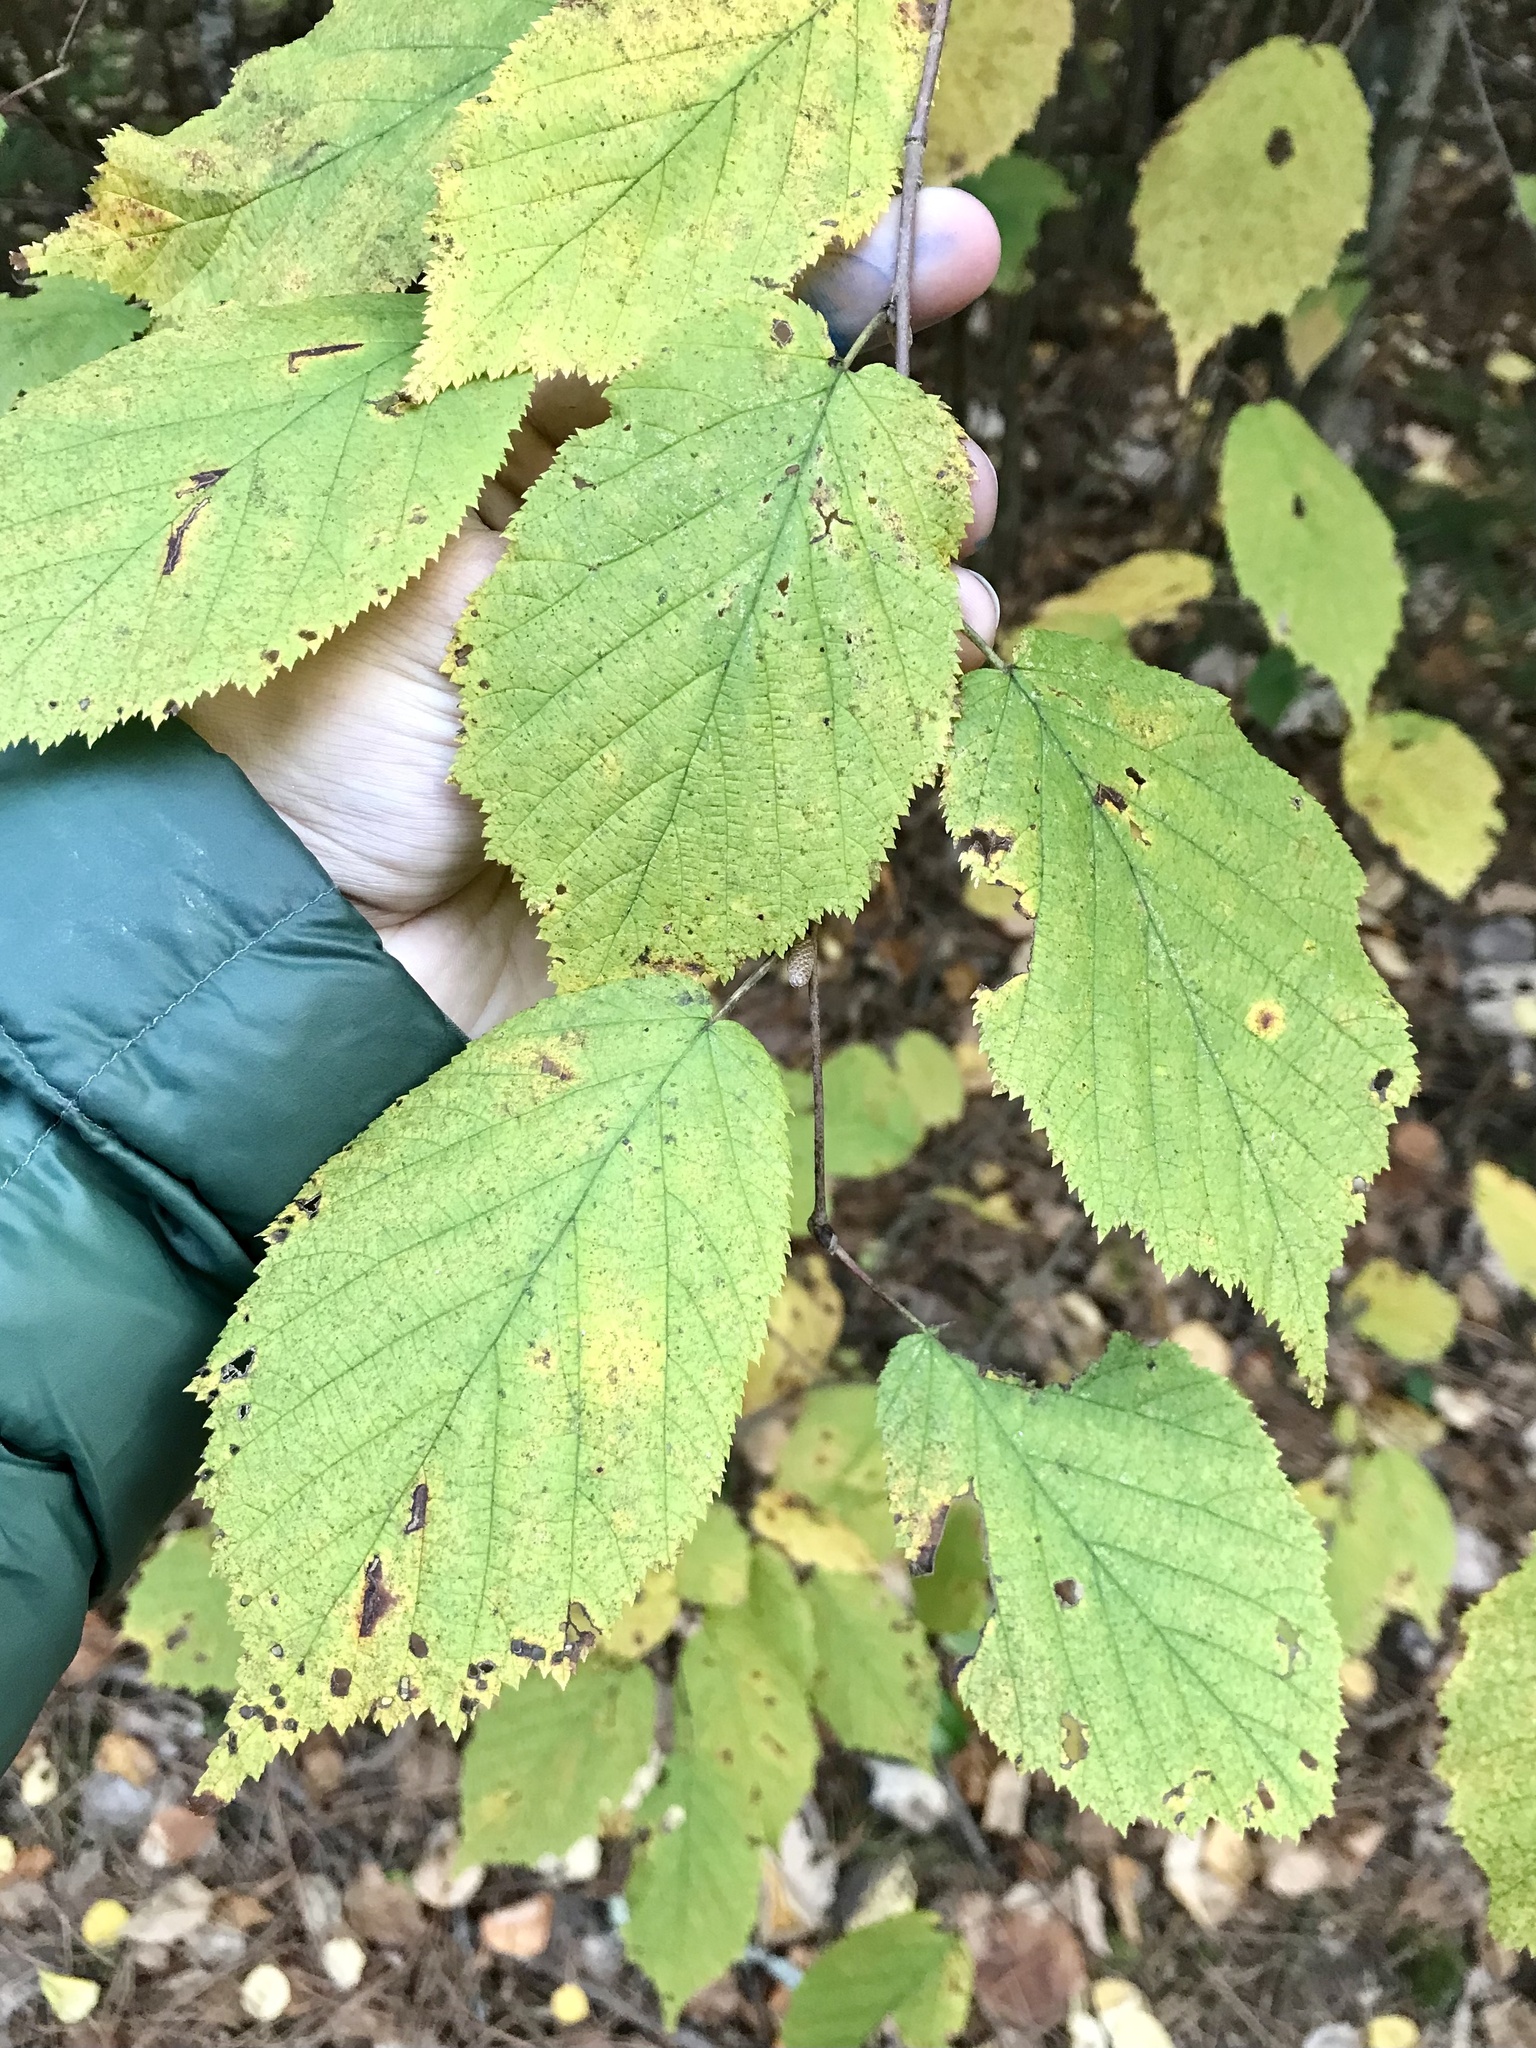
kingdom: Plantae
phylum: Tracheophyta
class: Magnoliopsida
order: Fagales
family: Betulaceae
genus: Corylus
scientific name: Corylus cornuta
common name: Beaked hazel
